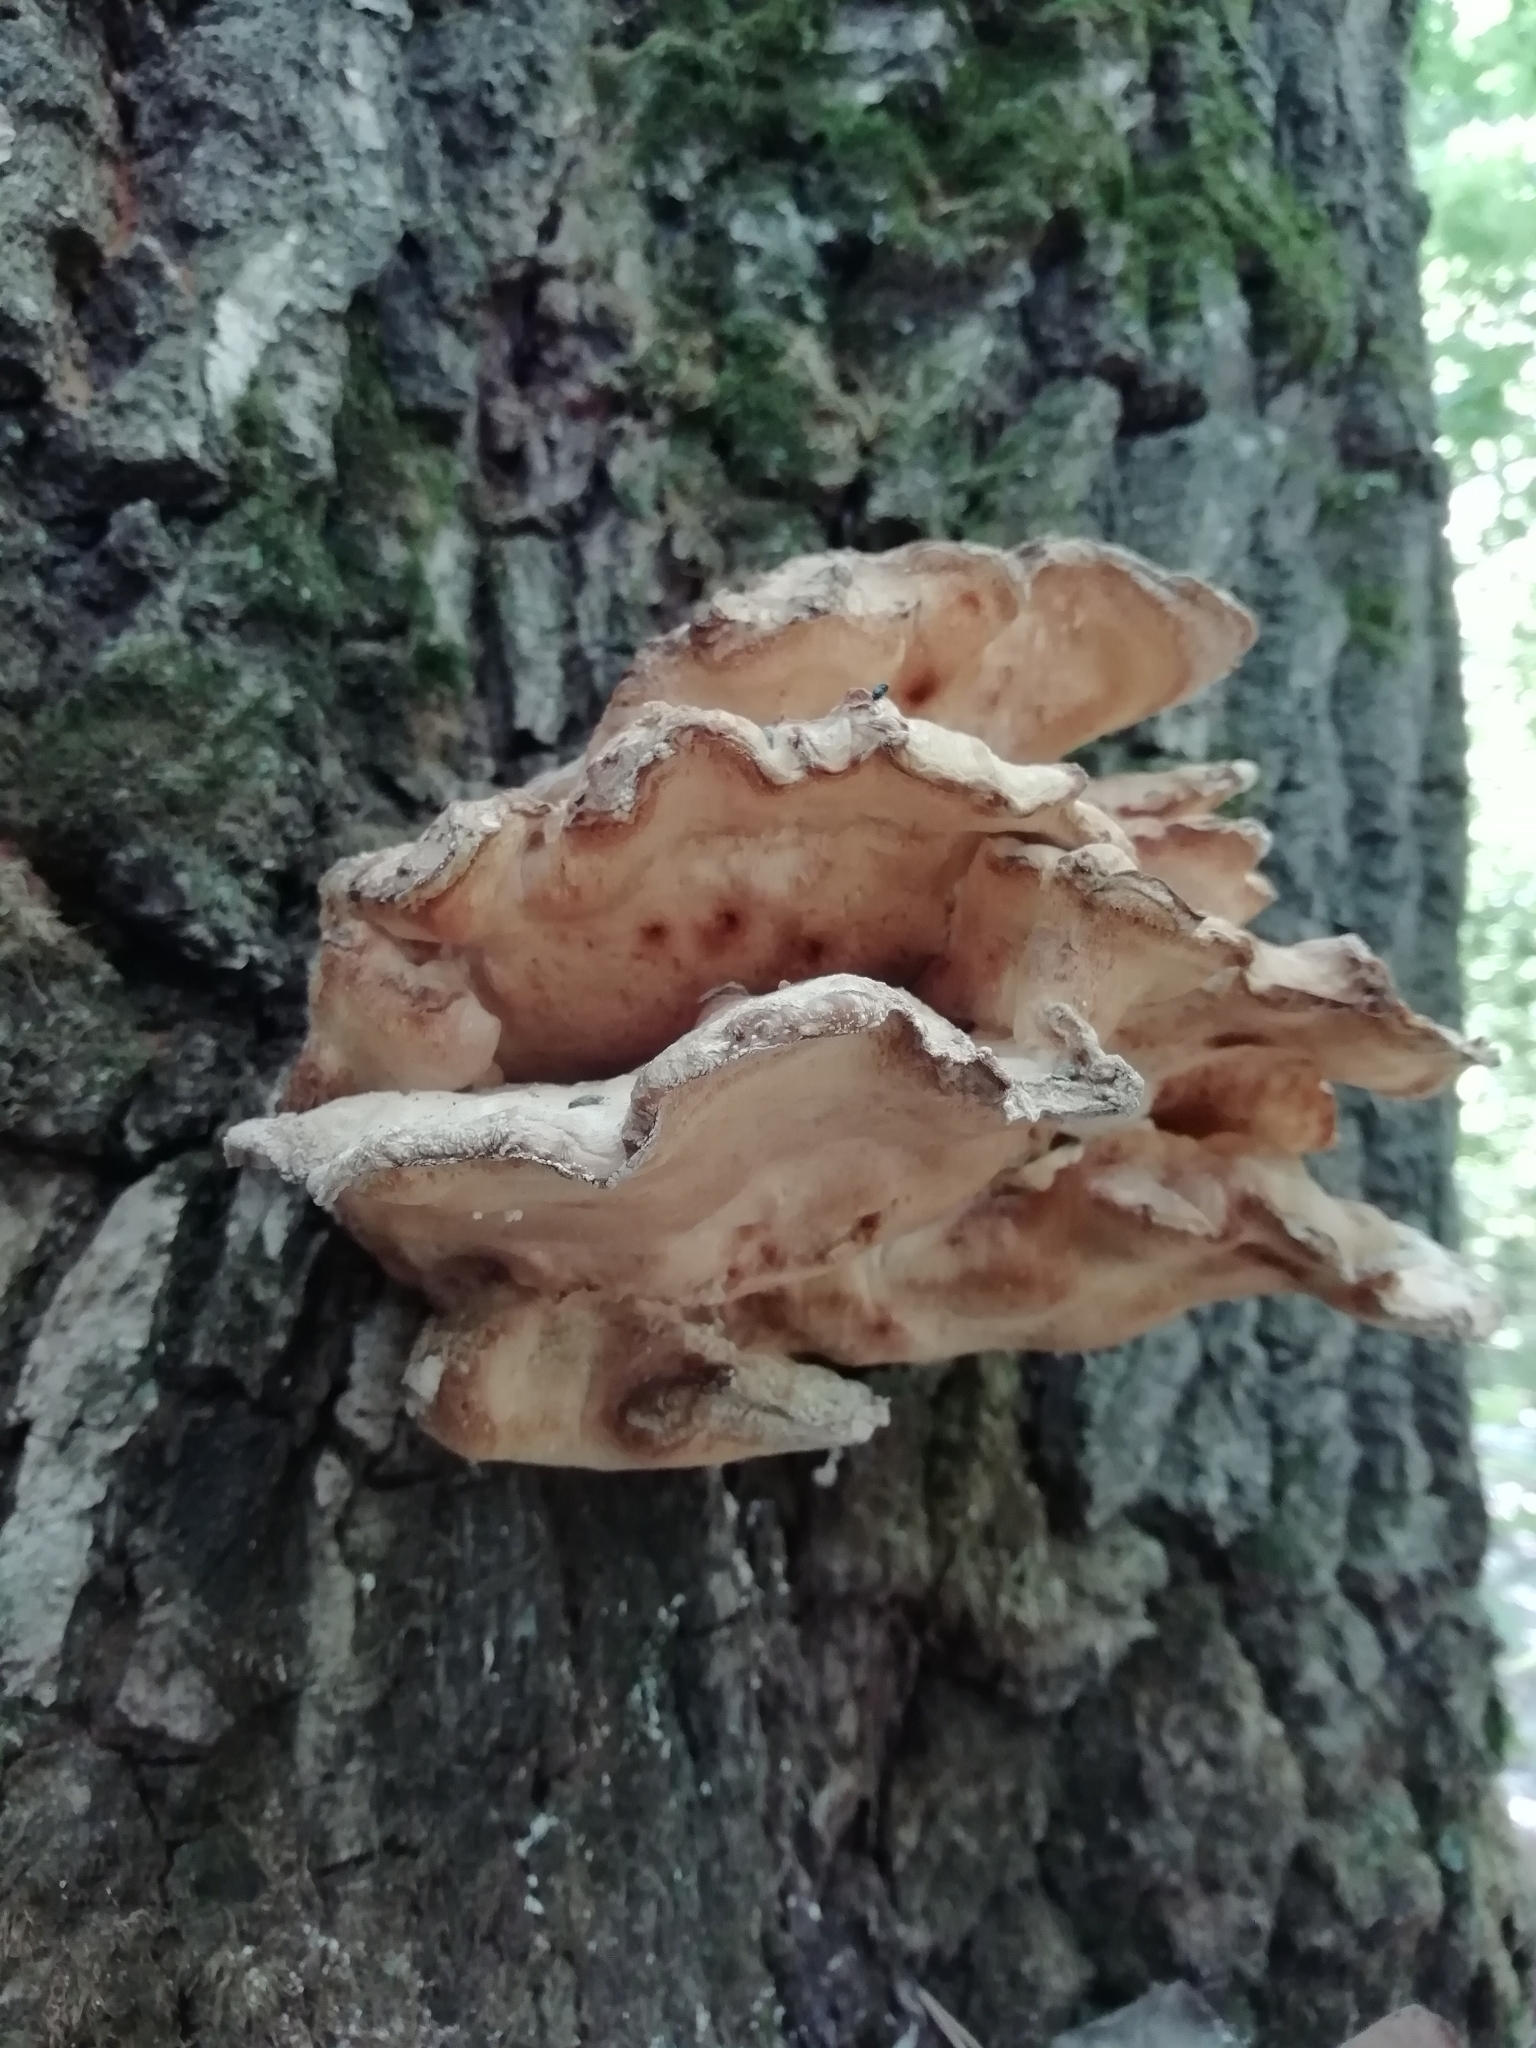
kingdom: Fungi
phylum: Basidiomycota
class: Agaricomycetes
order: Polyporales
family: Laetiporaceae
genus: Laetiporus
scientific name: Laetiporus sulphureus
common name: Chicken of the woods
